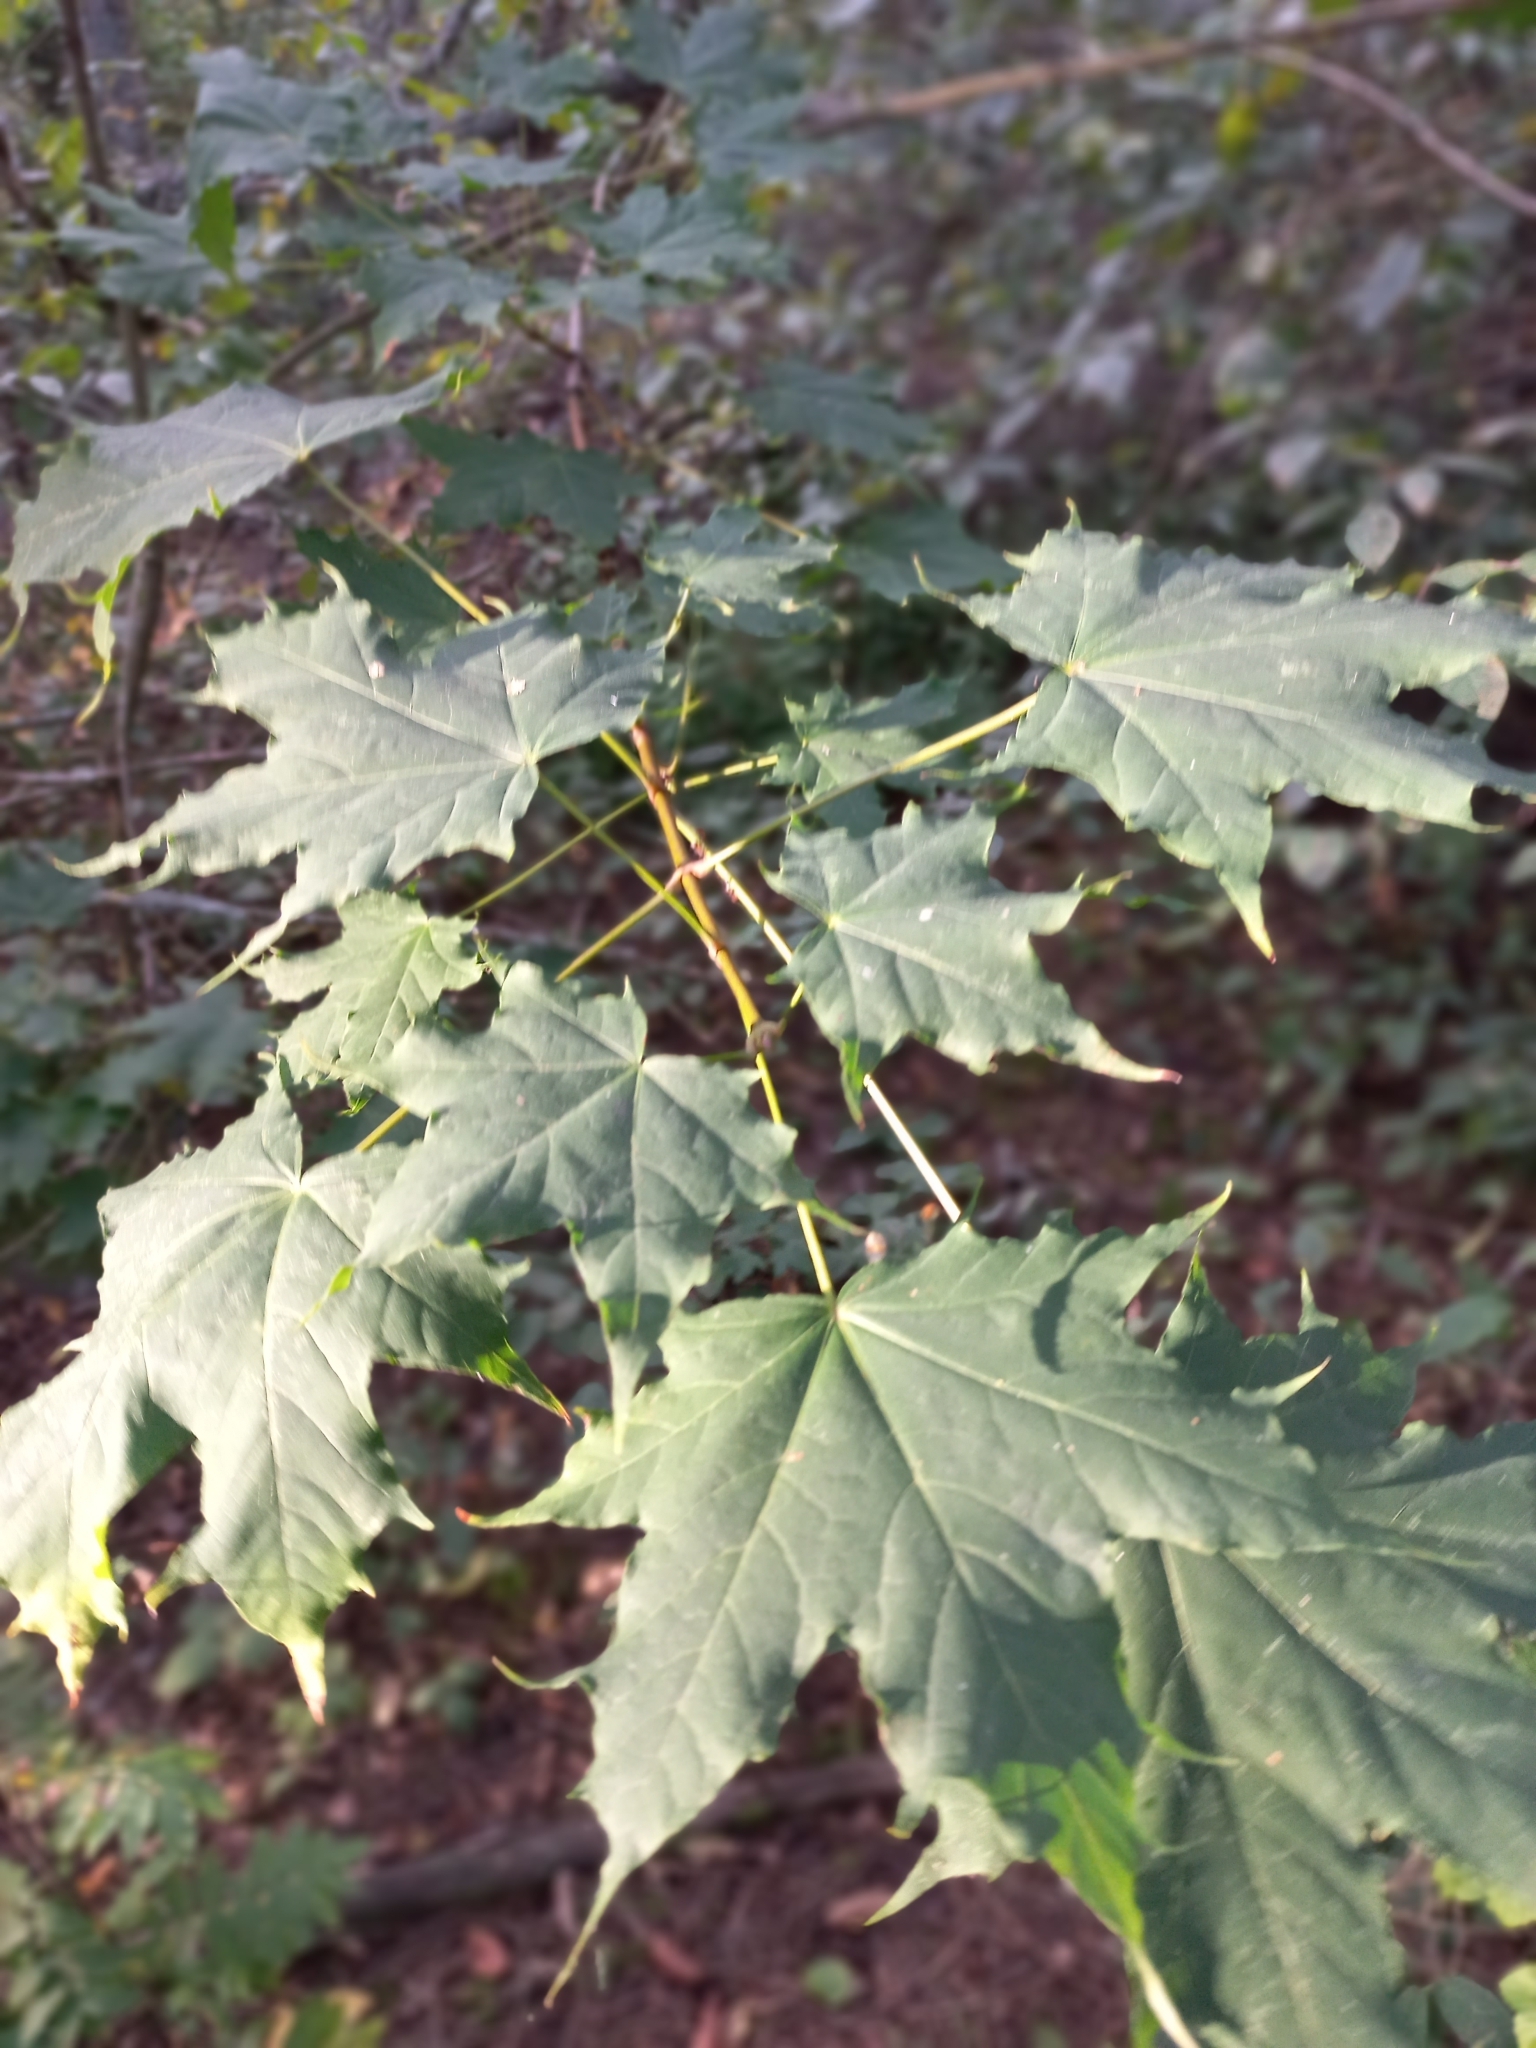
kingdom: Plantae
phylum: Tracheophyta
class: Magnoliopsida
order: Sapindales
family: Sapindaceae
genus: Acer
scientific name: Acer platanoides
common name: Norway maple
